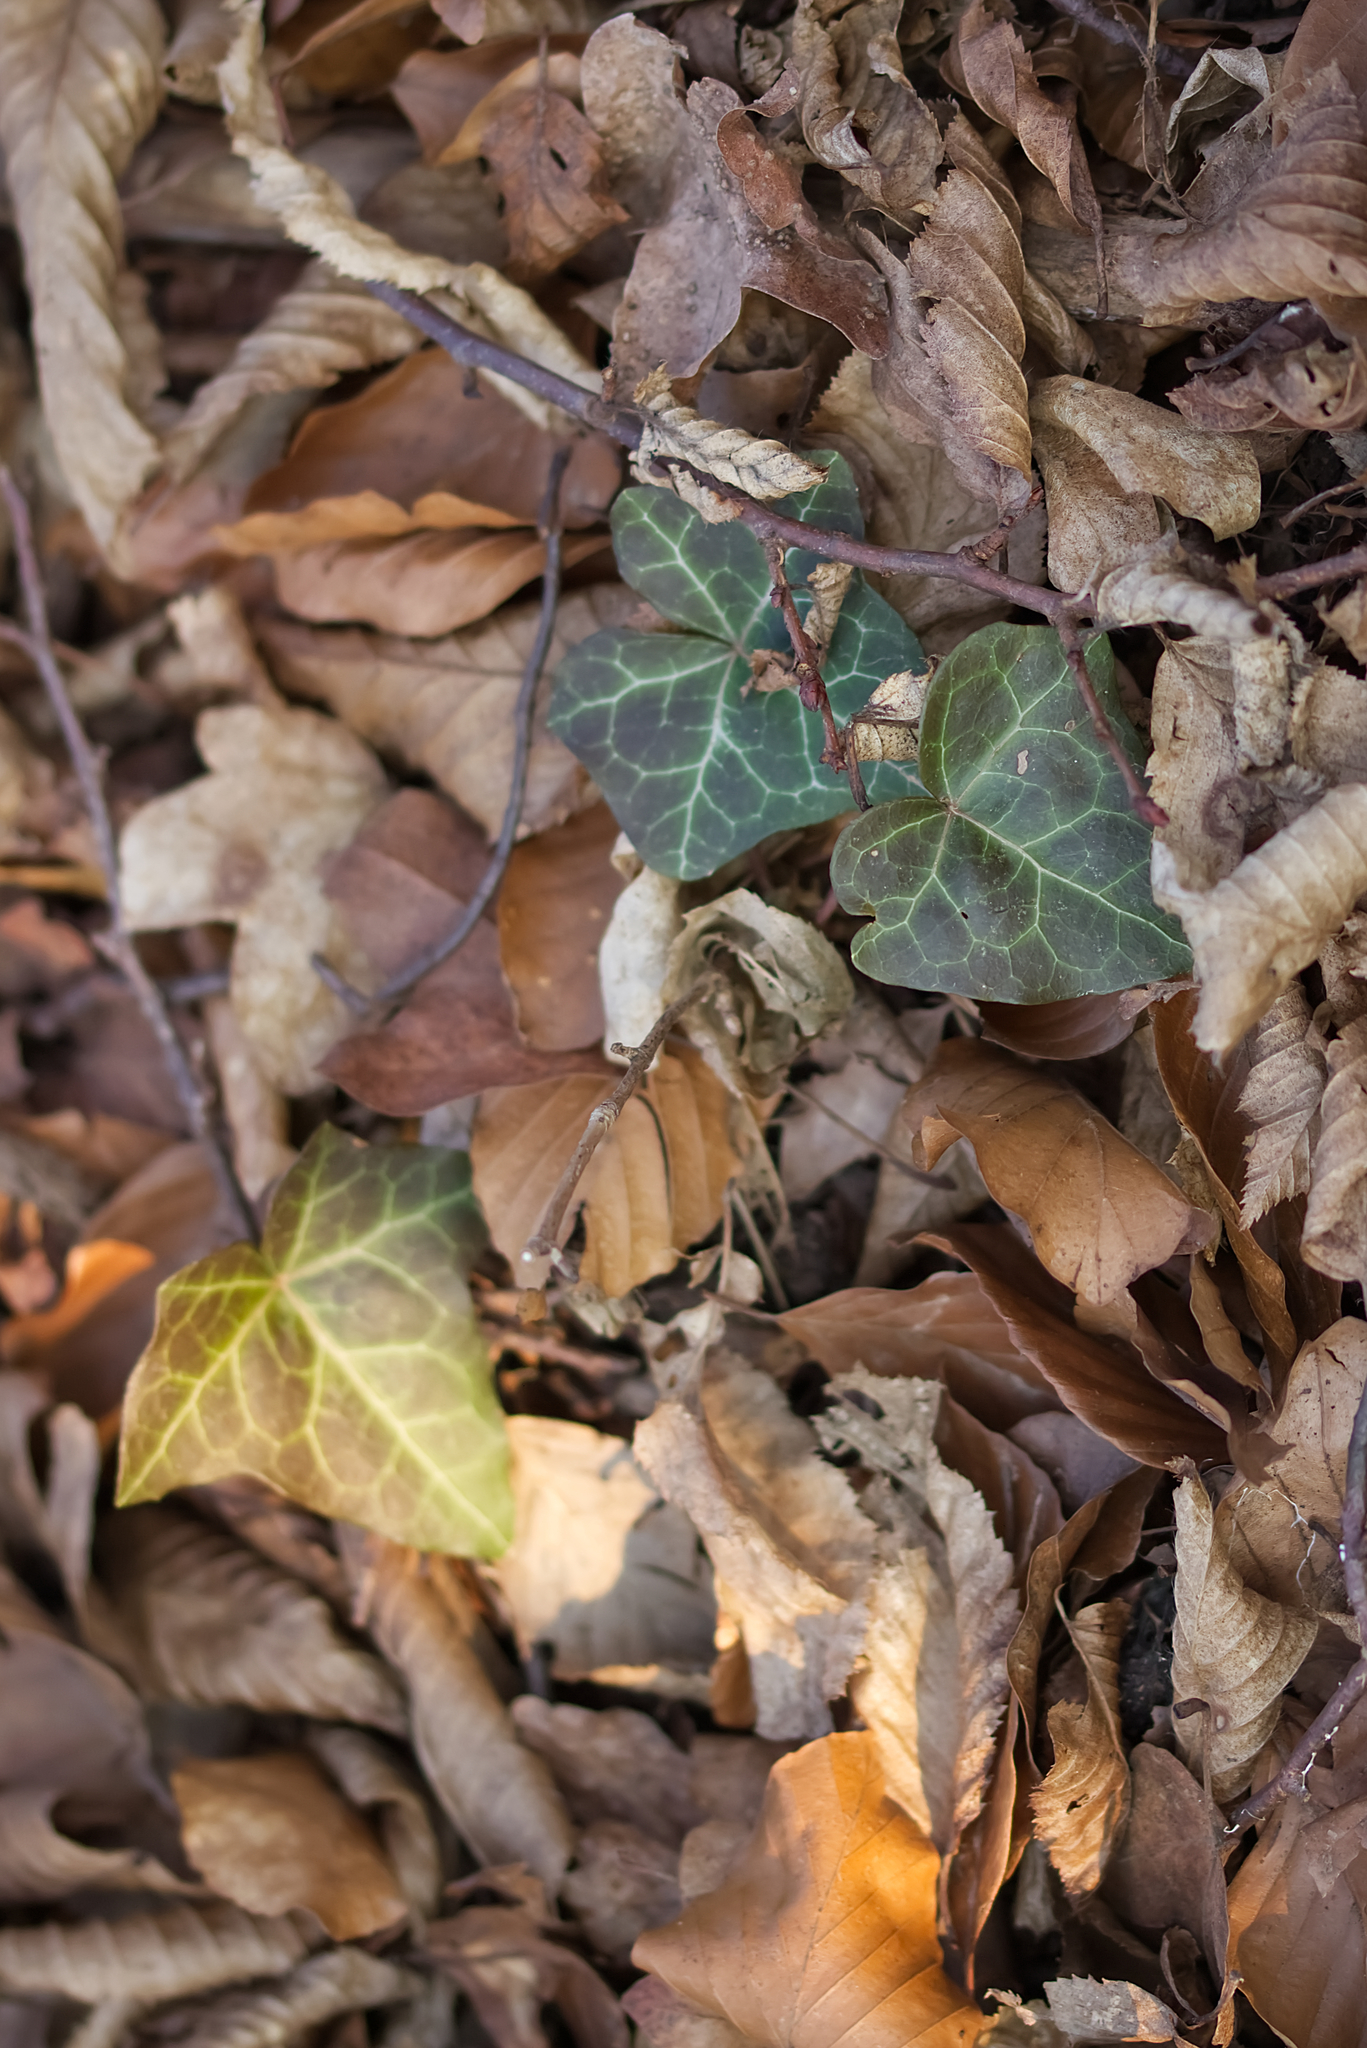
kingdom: Plantae
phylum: Tracheophyta
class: Magnoliopsida
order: Apiales
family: Araliaceae
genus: Hedera
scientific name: Hedera helix
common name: Ivy
